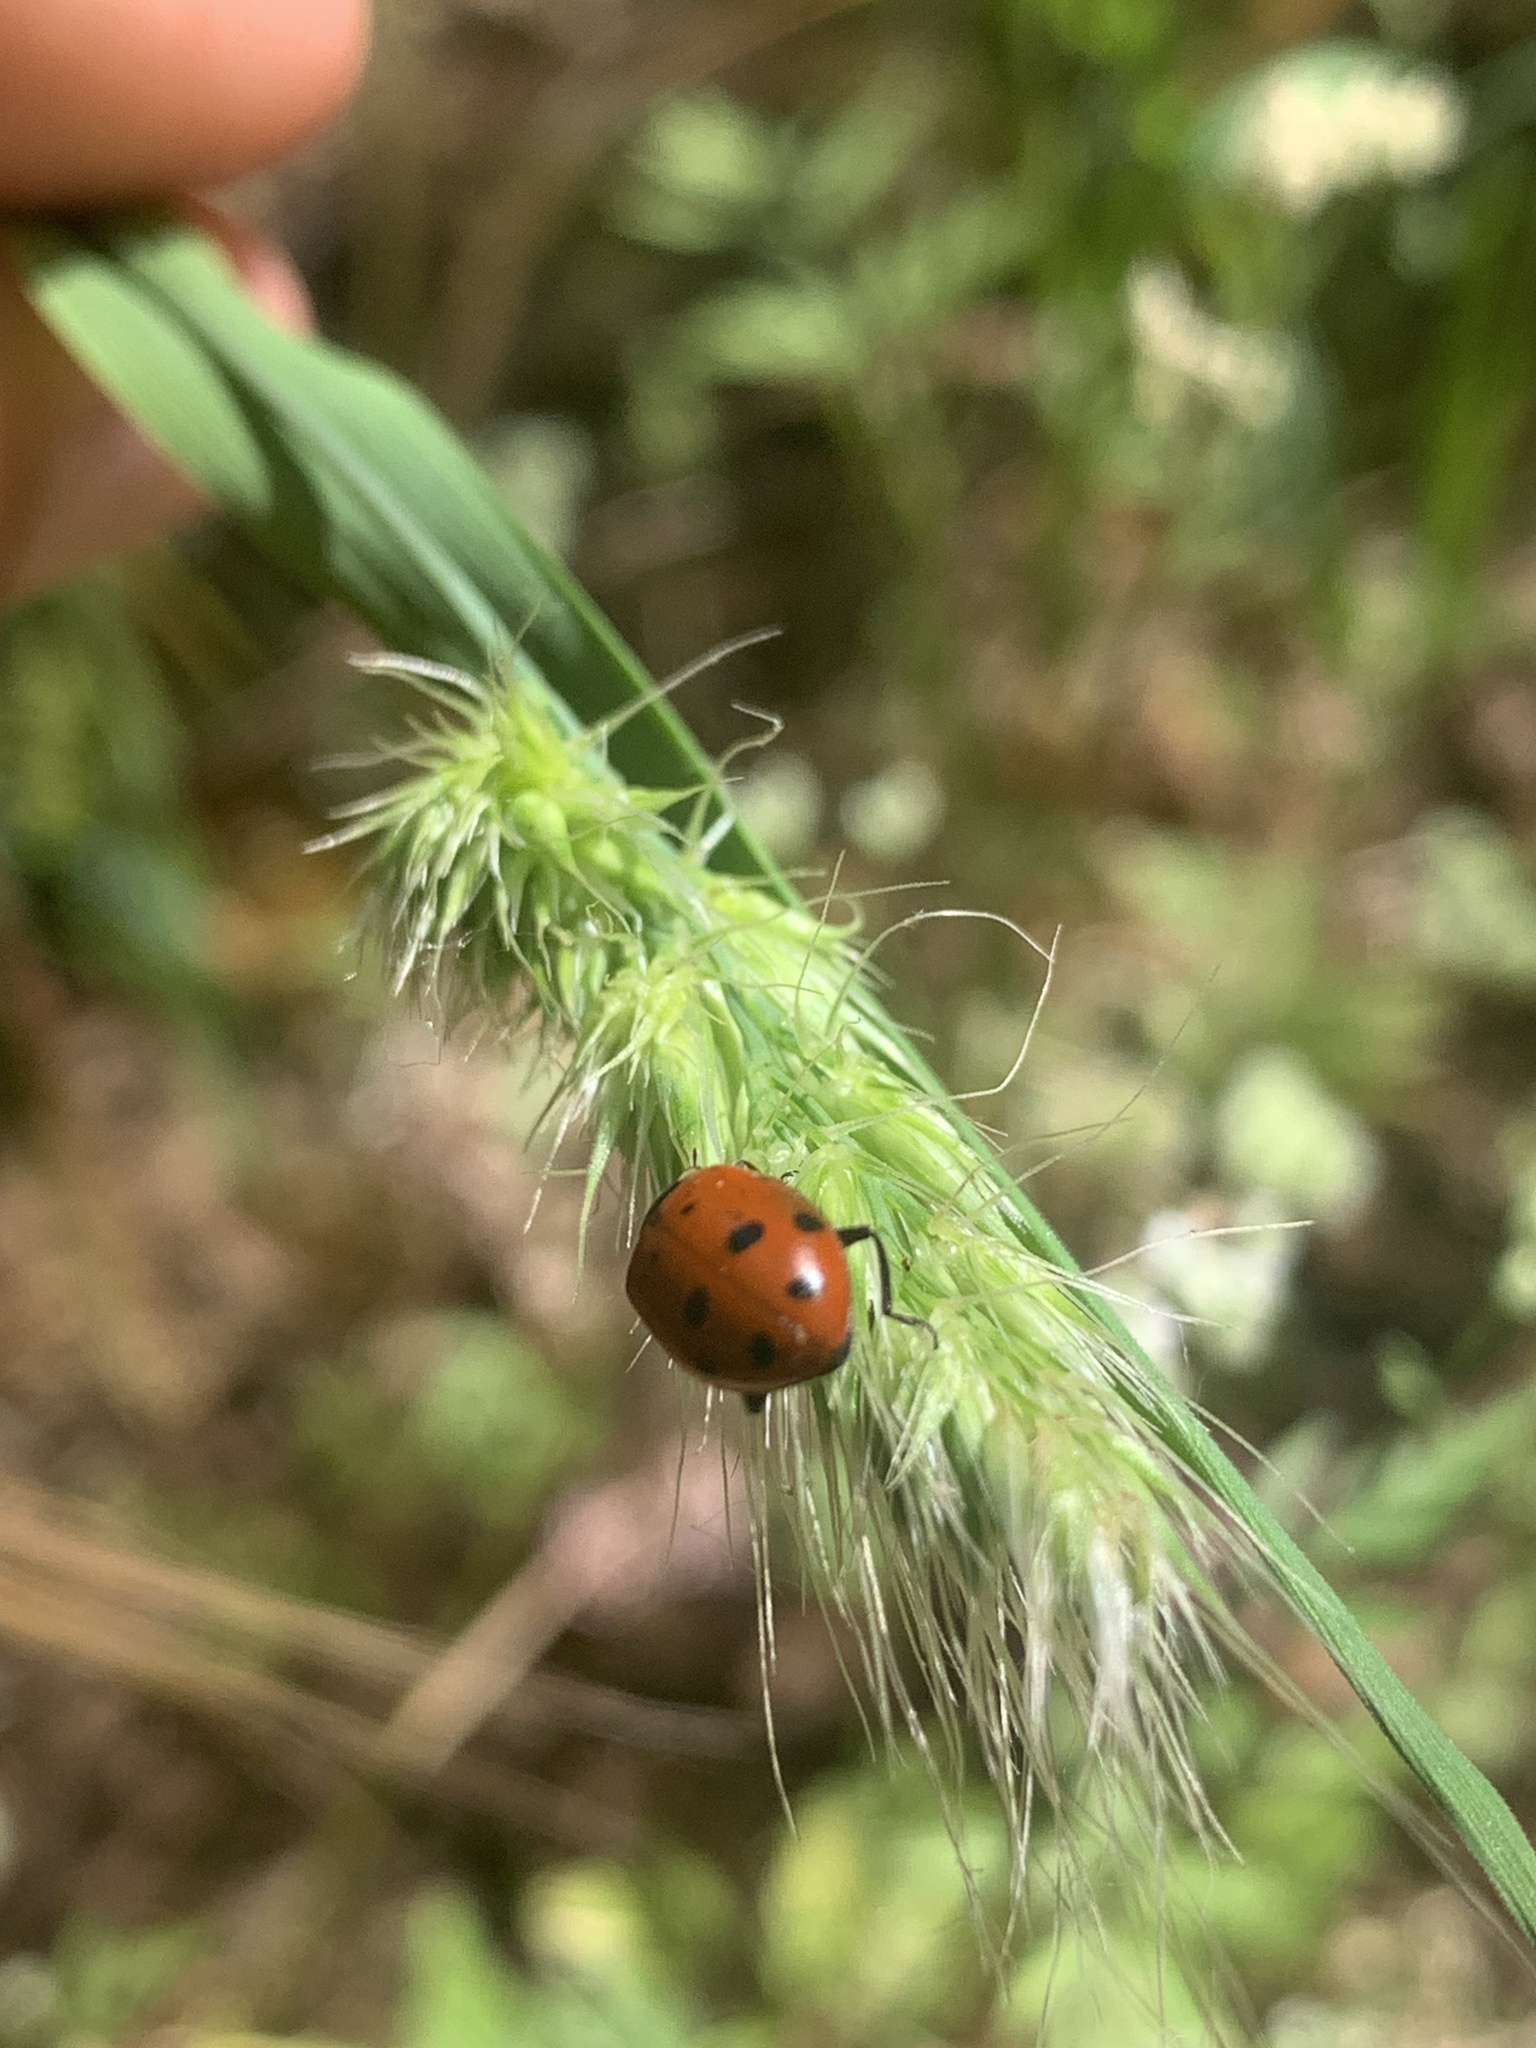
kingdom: Animalia
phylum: Arthropoda
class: Insecta
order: Coleoptera
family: Coccinellidae
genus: Hippodamia
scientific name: Hippodamia convergens
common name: Convergent lady beetle
